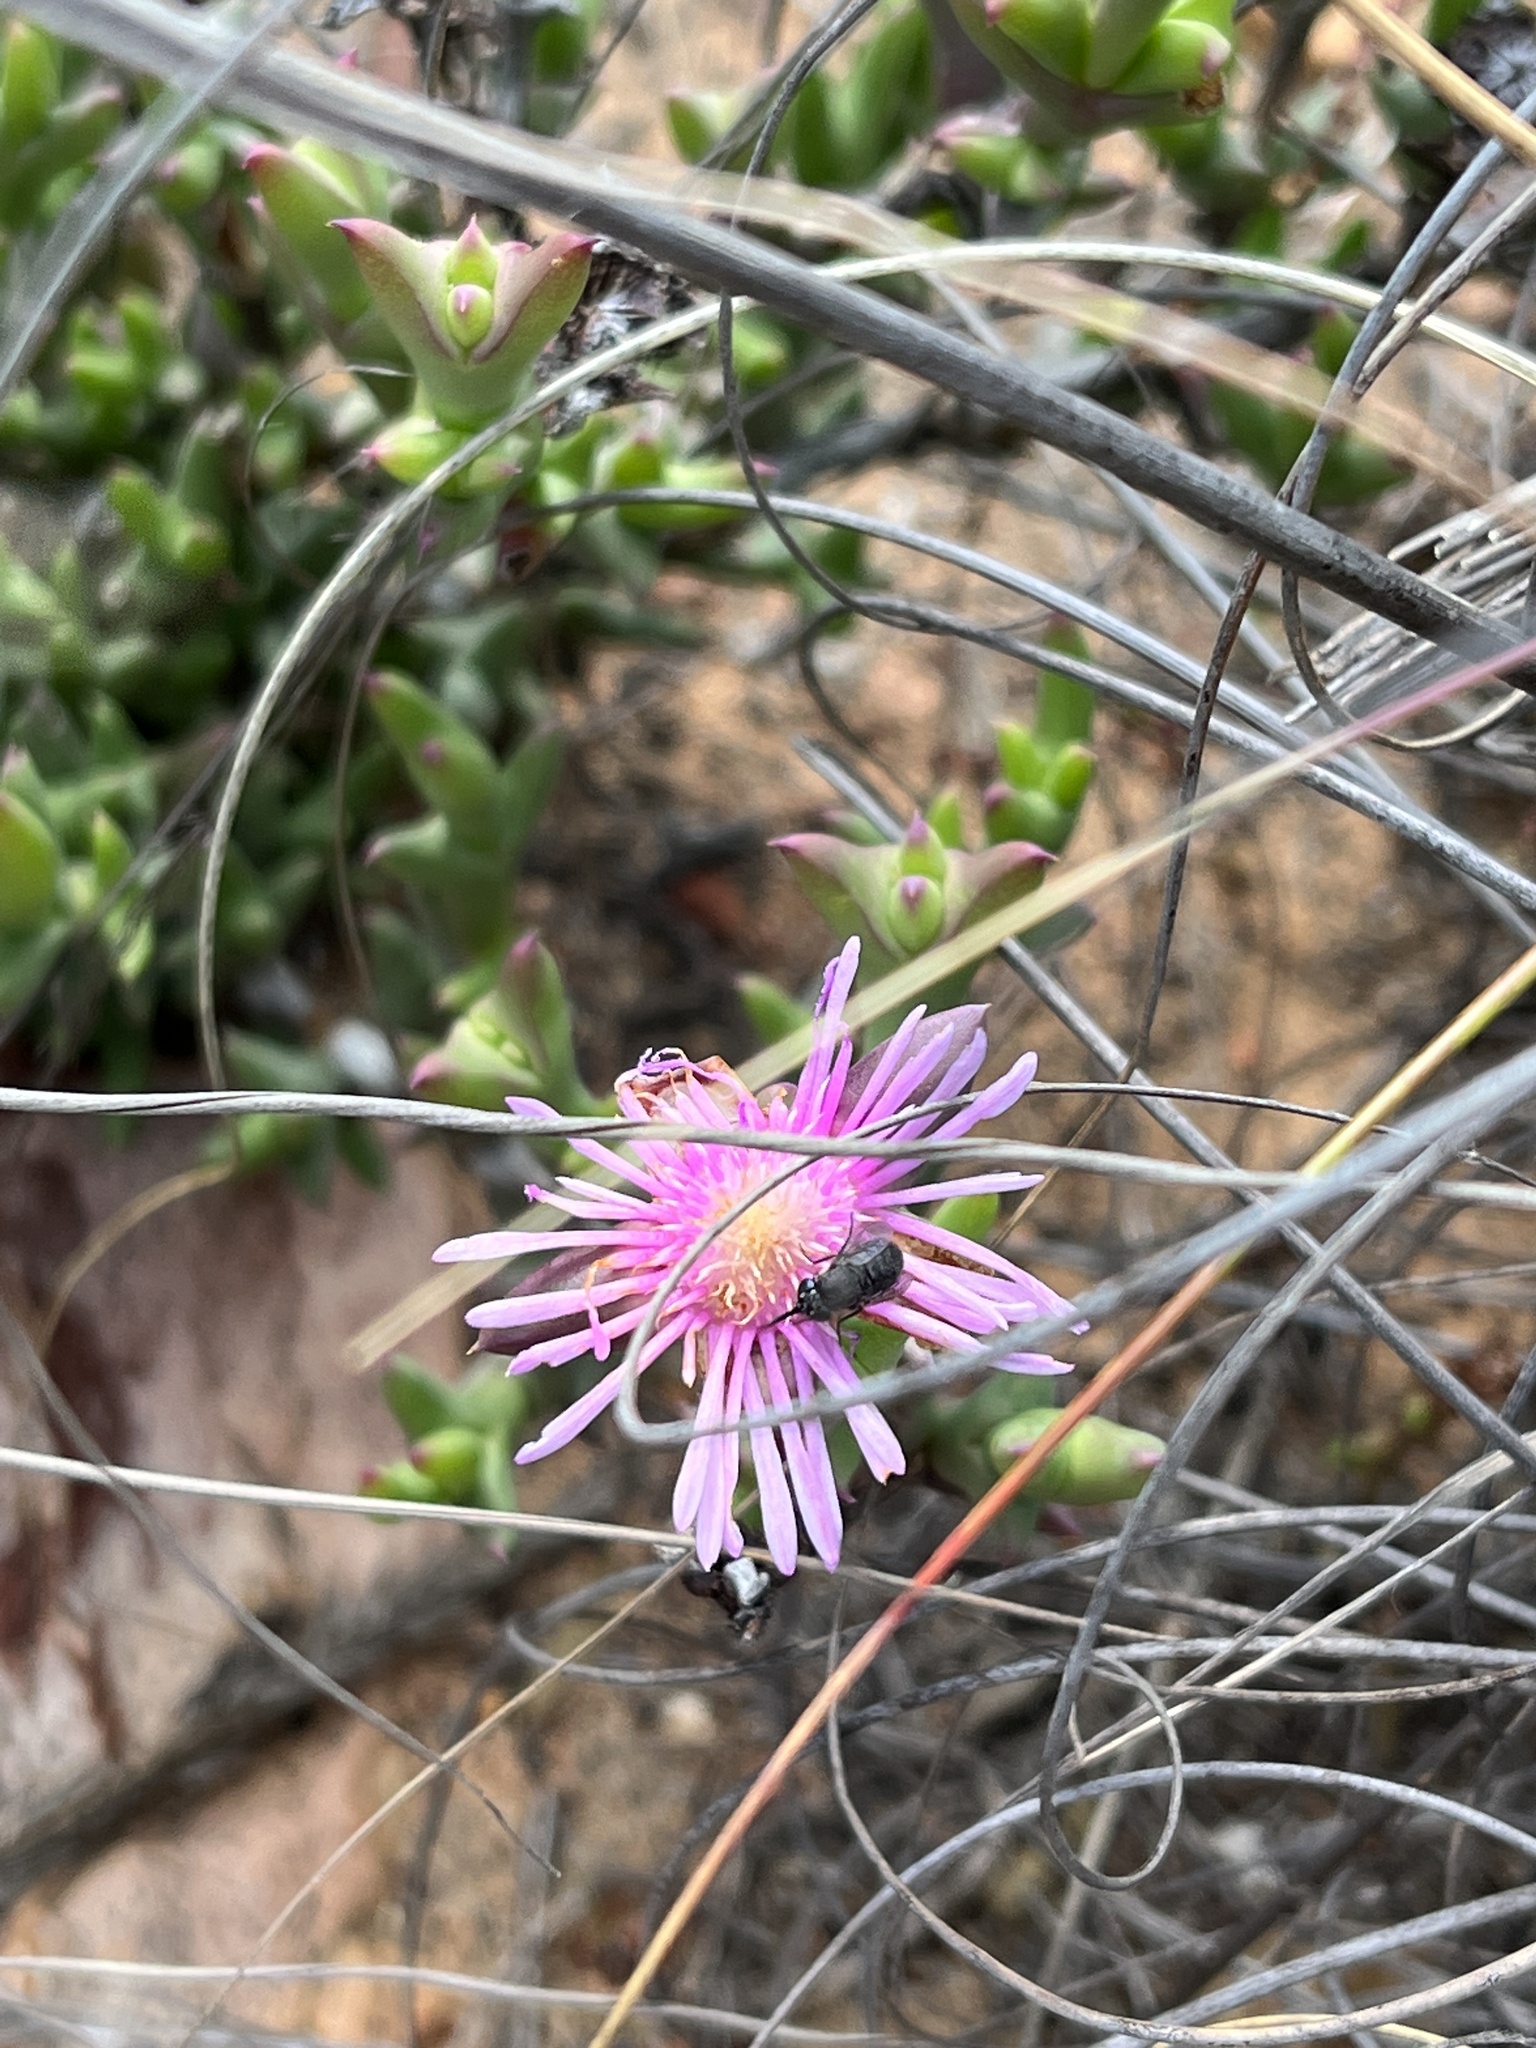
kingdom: Plantae
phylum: Tracheophyta
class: Magnoliopsida
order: Caryophyllales
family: Aizoaceae
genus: Smicrostigma
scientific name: Smicrostigma viride
